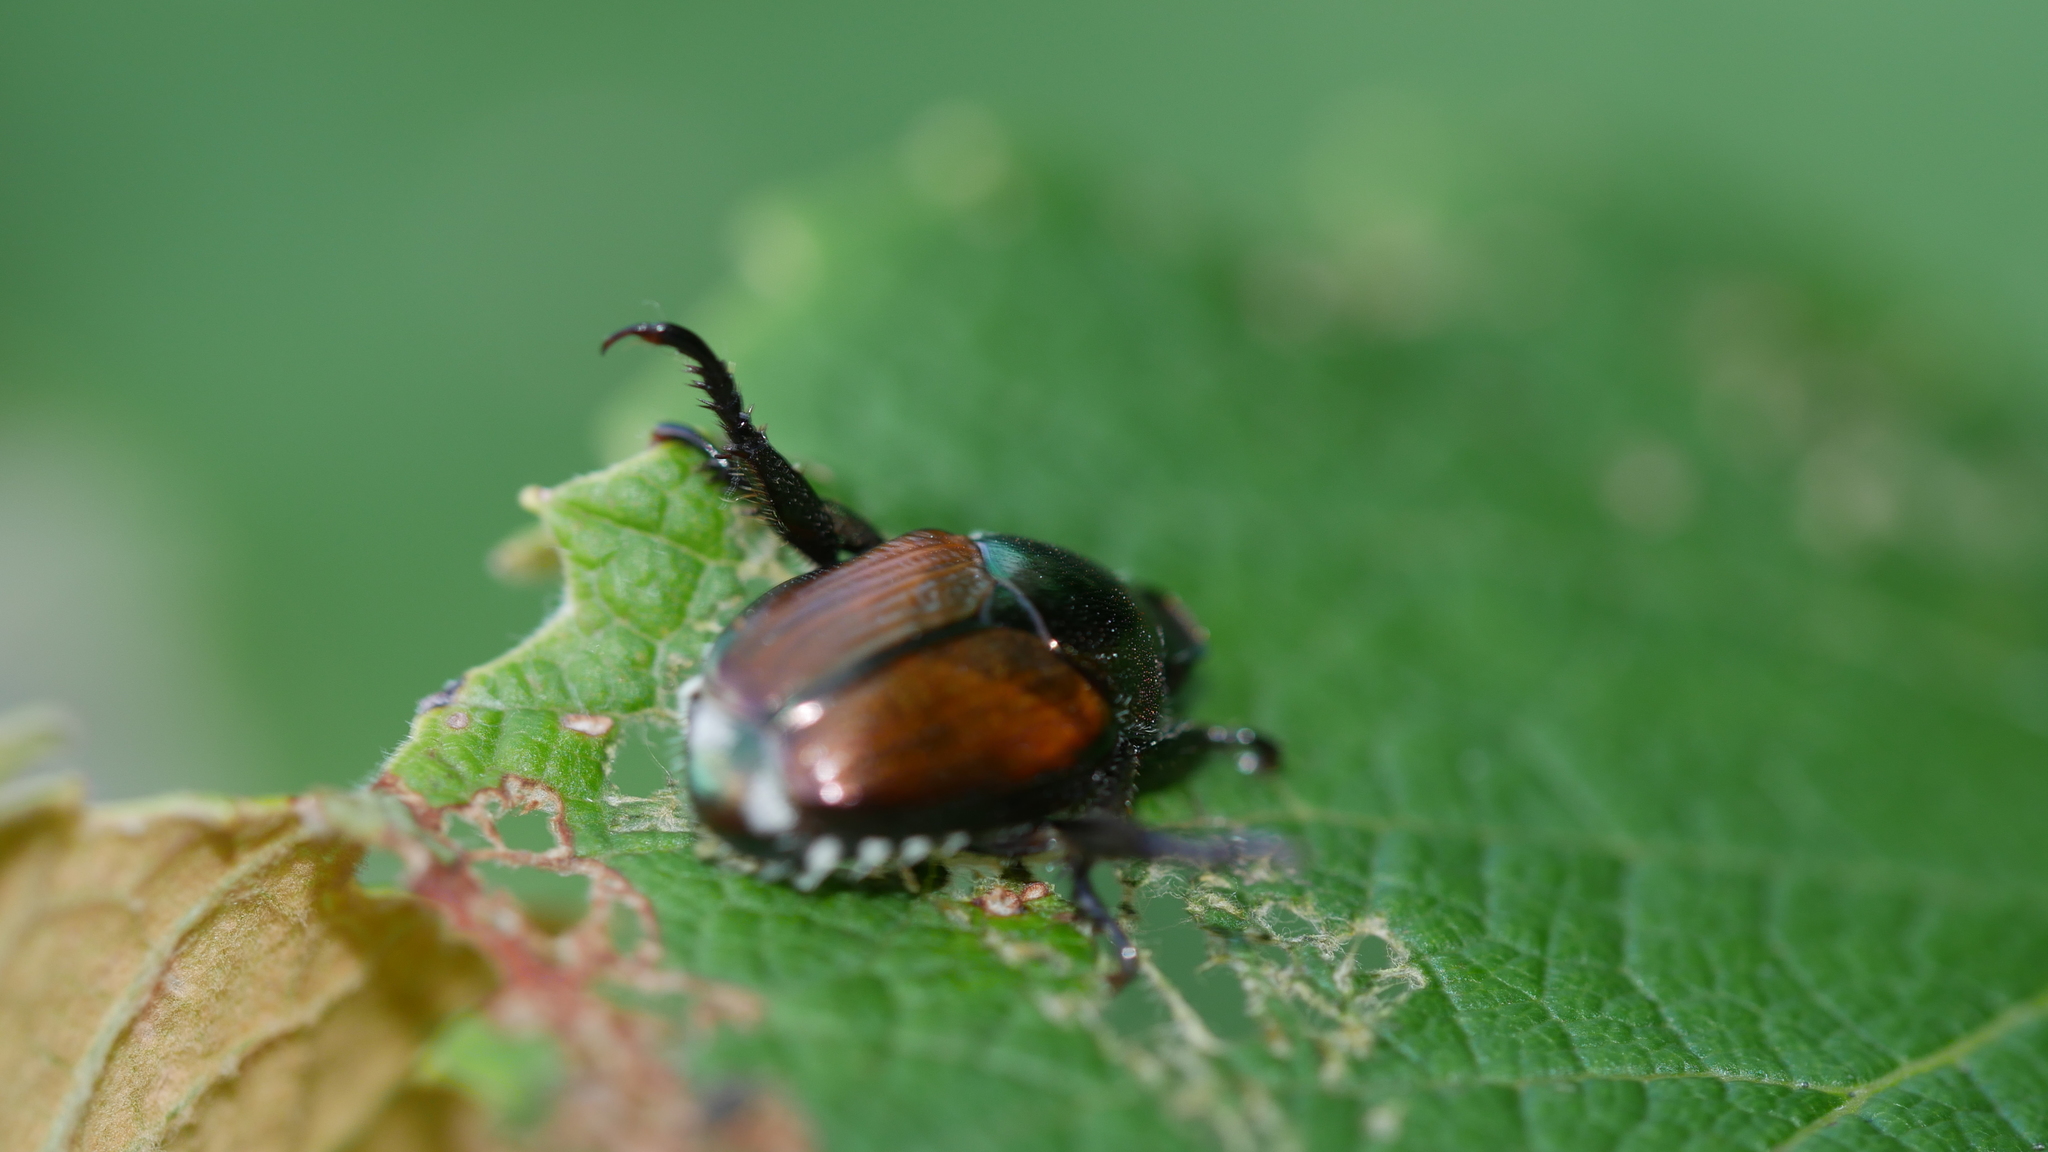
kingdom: Animalia
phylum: Arthropoda
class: Insecta
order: Coleoptera
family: Scarabaeidae
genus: Popillia
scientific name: Popillia japonica
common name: Japanese beetle
